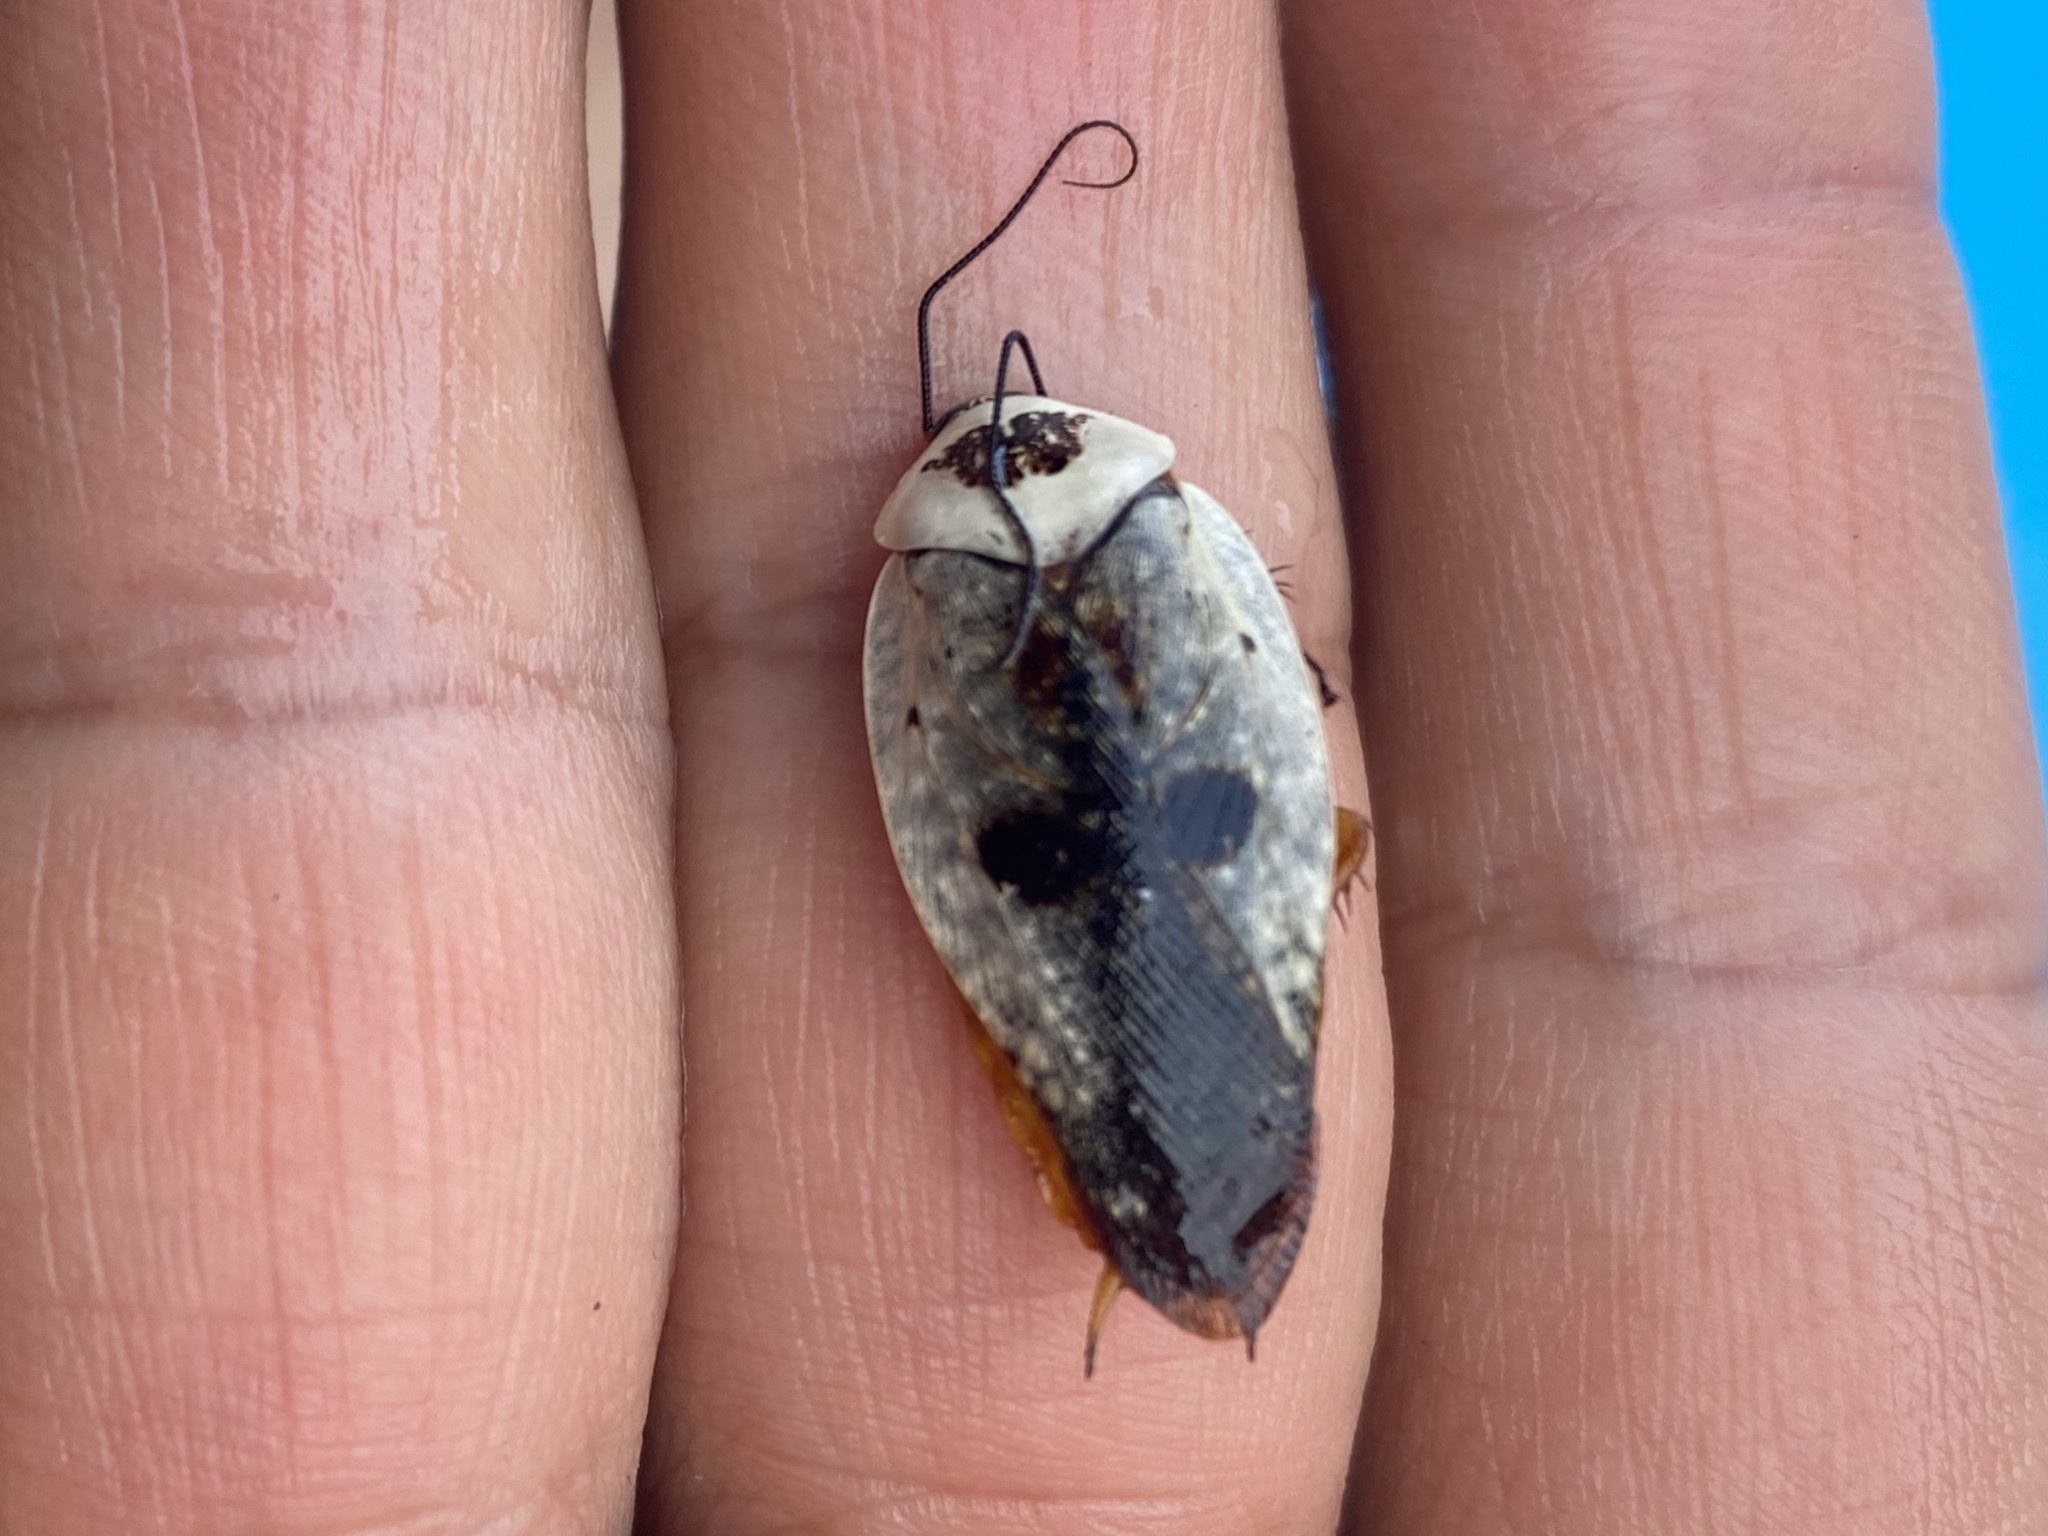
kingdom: Animalia
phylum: Arthropoda
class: Insecta
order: Blattodea
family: Blaberidae
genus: Gyna
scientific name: Gyna caffrorum
